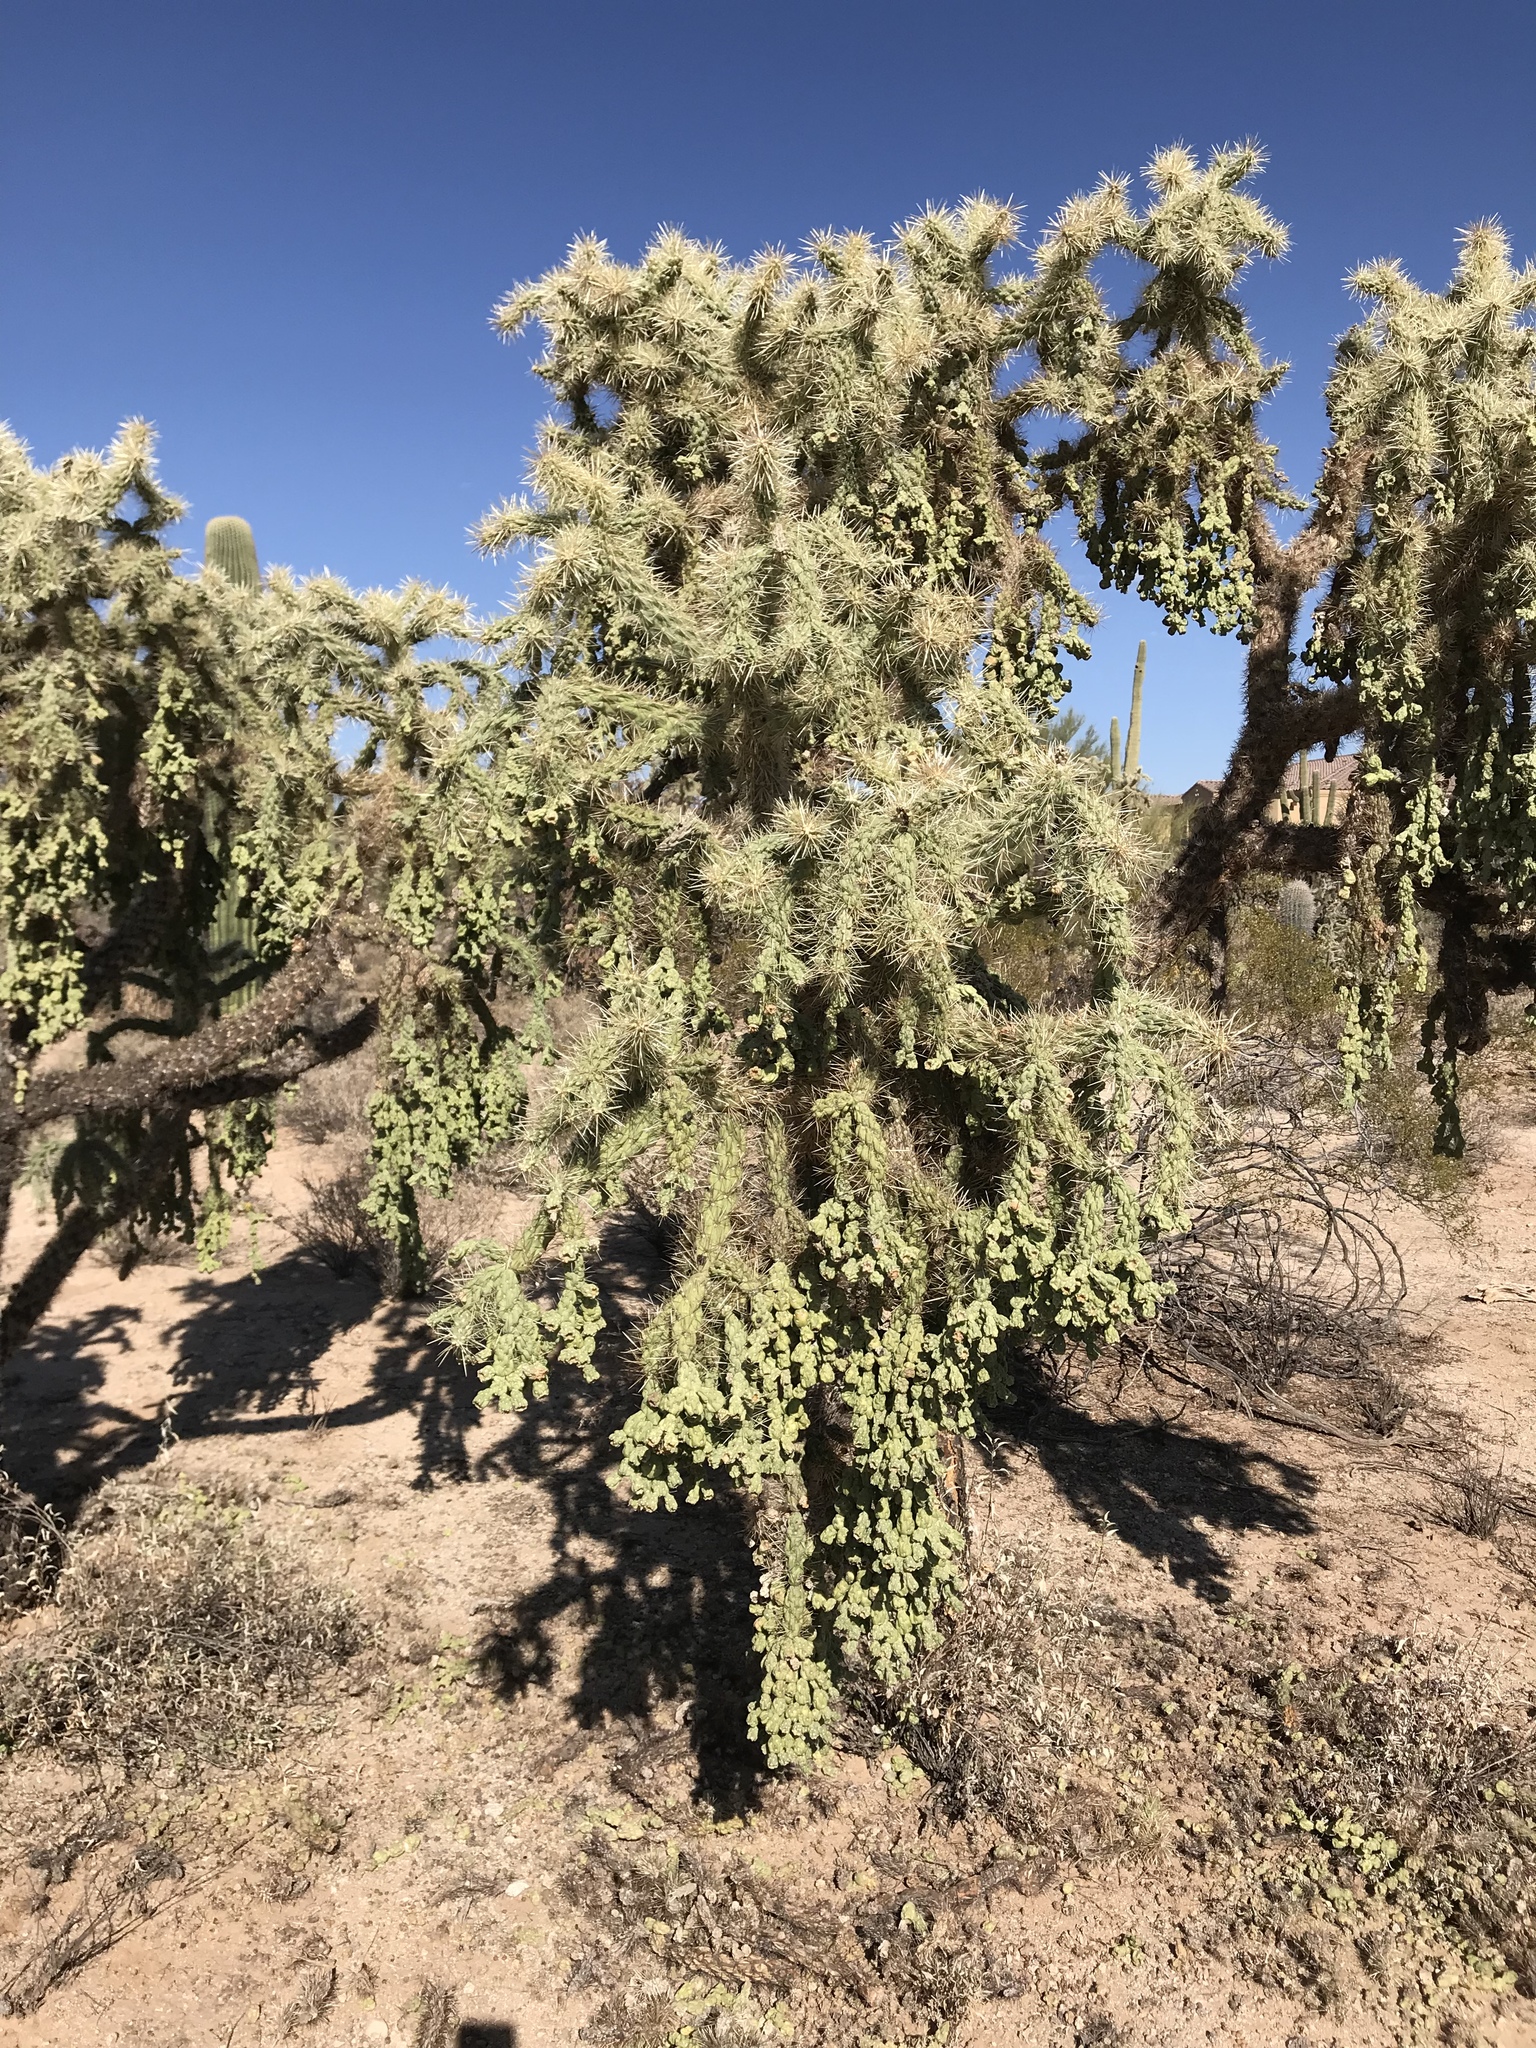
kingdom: Plantae
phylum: Tracheophyta
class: Magnoliopsida
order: Caryophyllales
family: Cactaceae
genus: Cylindropuntia
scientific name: Cylindropuntia fulgida
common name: Jumping cholla
